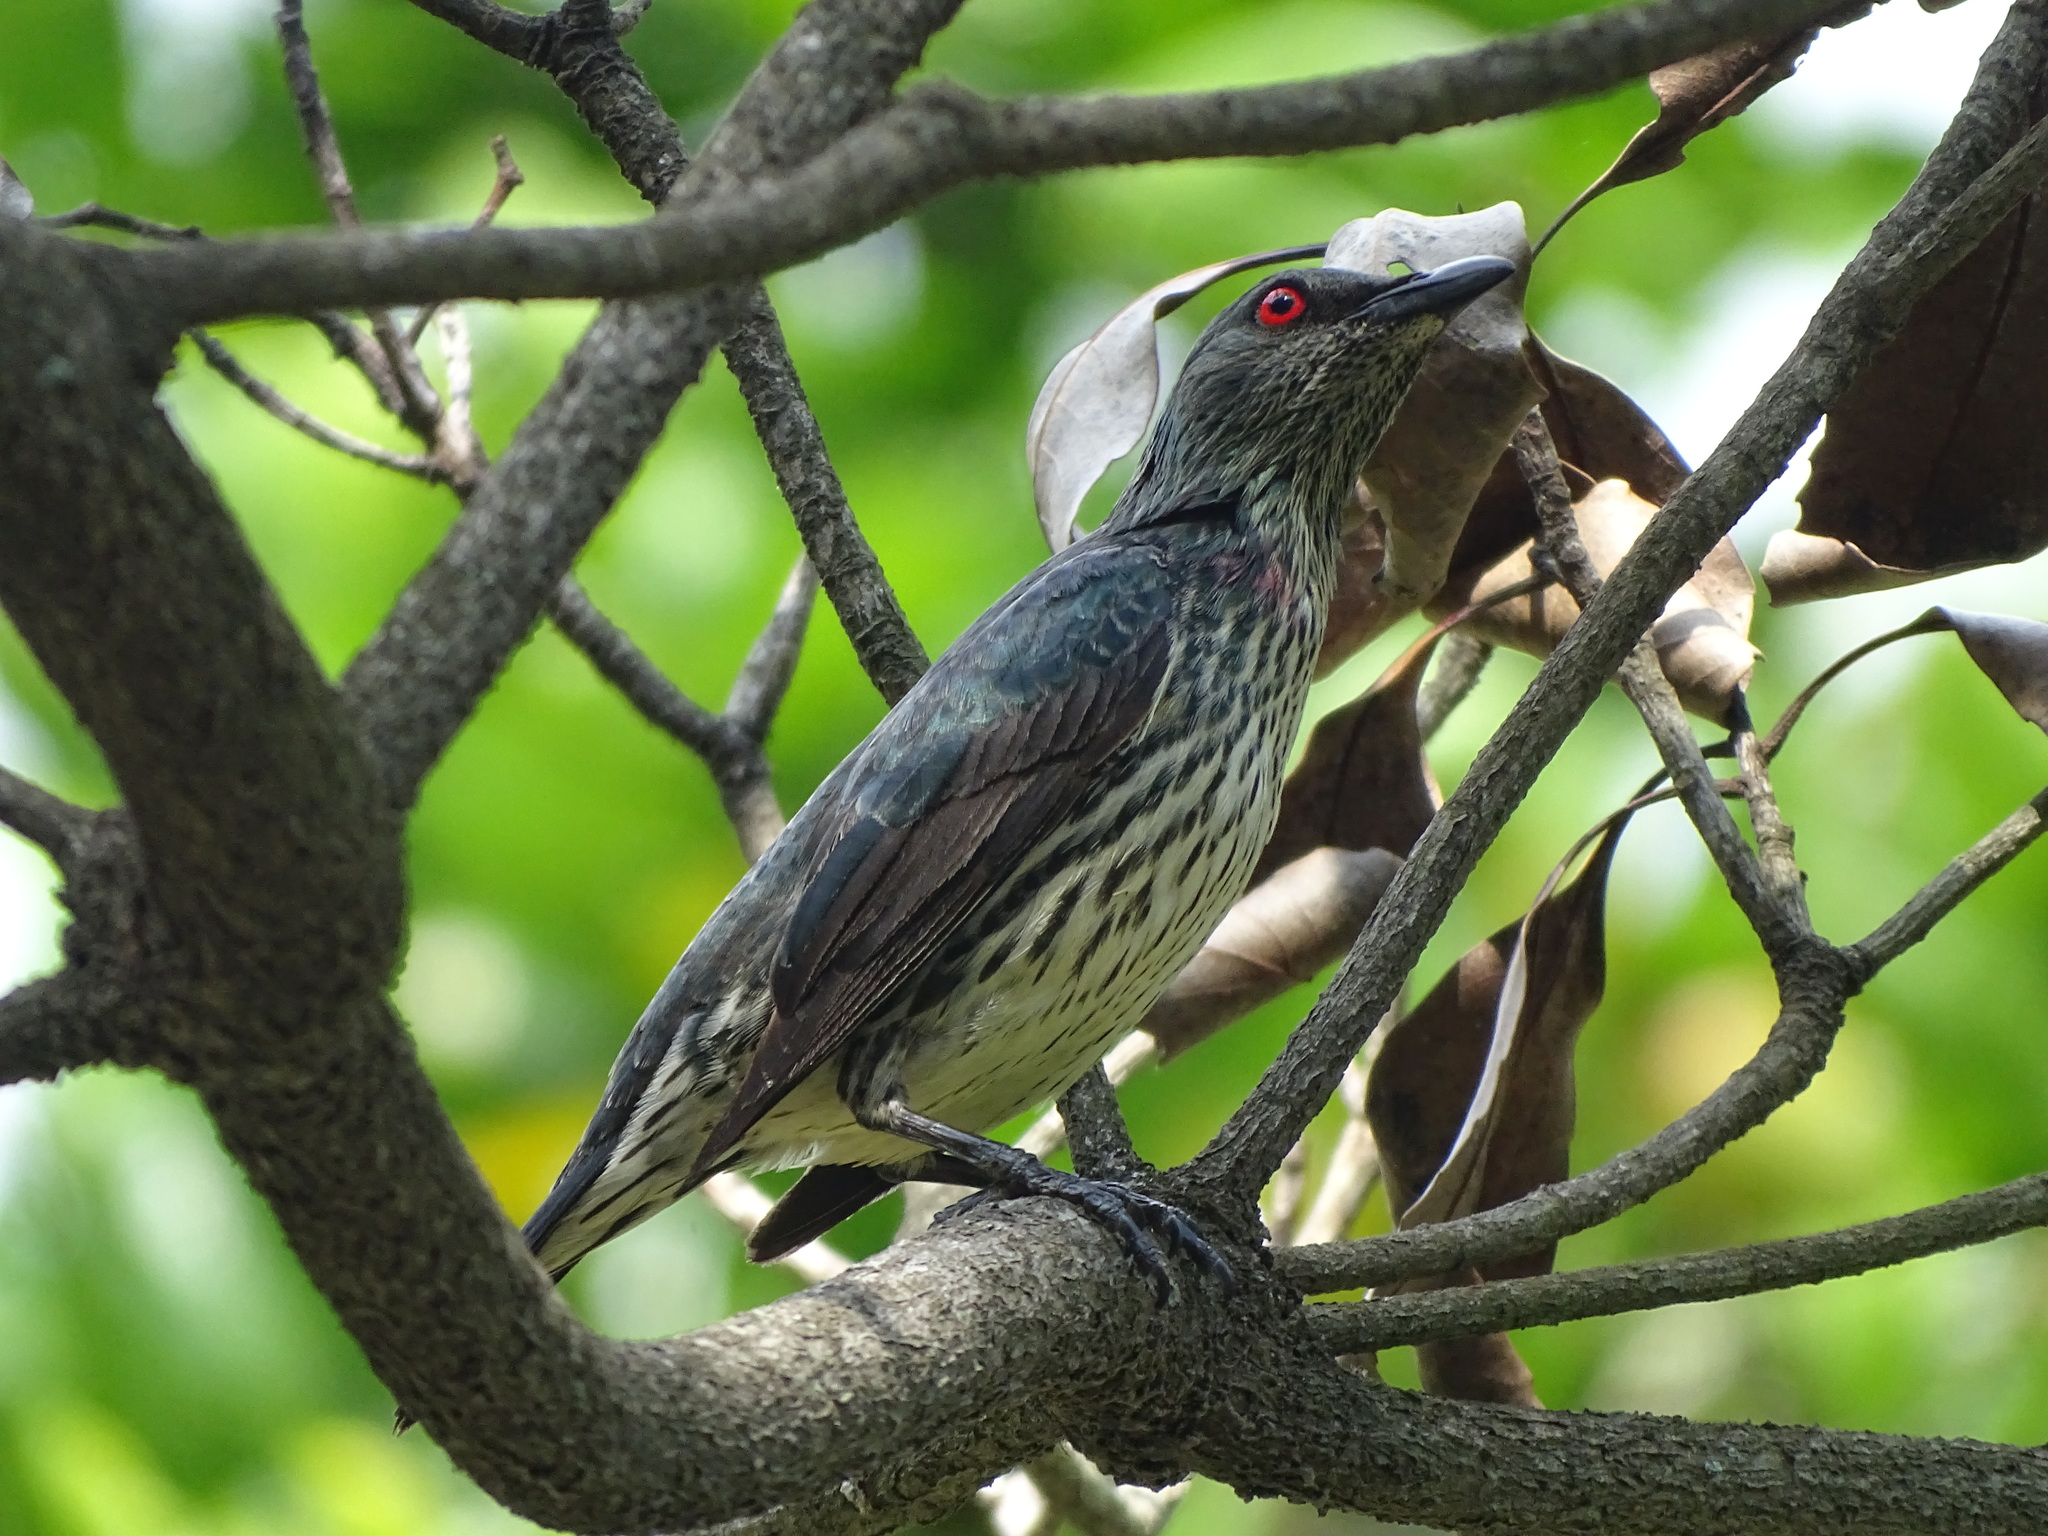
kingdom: Animalia
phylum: Chordata
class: Aves
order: Passeriformes
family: Sturnidae
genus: Aplonis
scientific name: Aplonis panayensis
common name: Asian glossy starling
